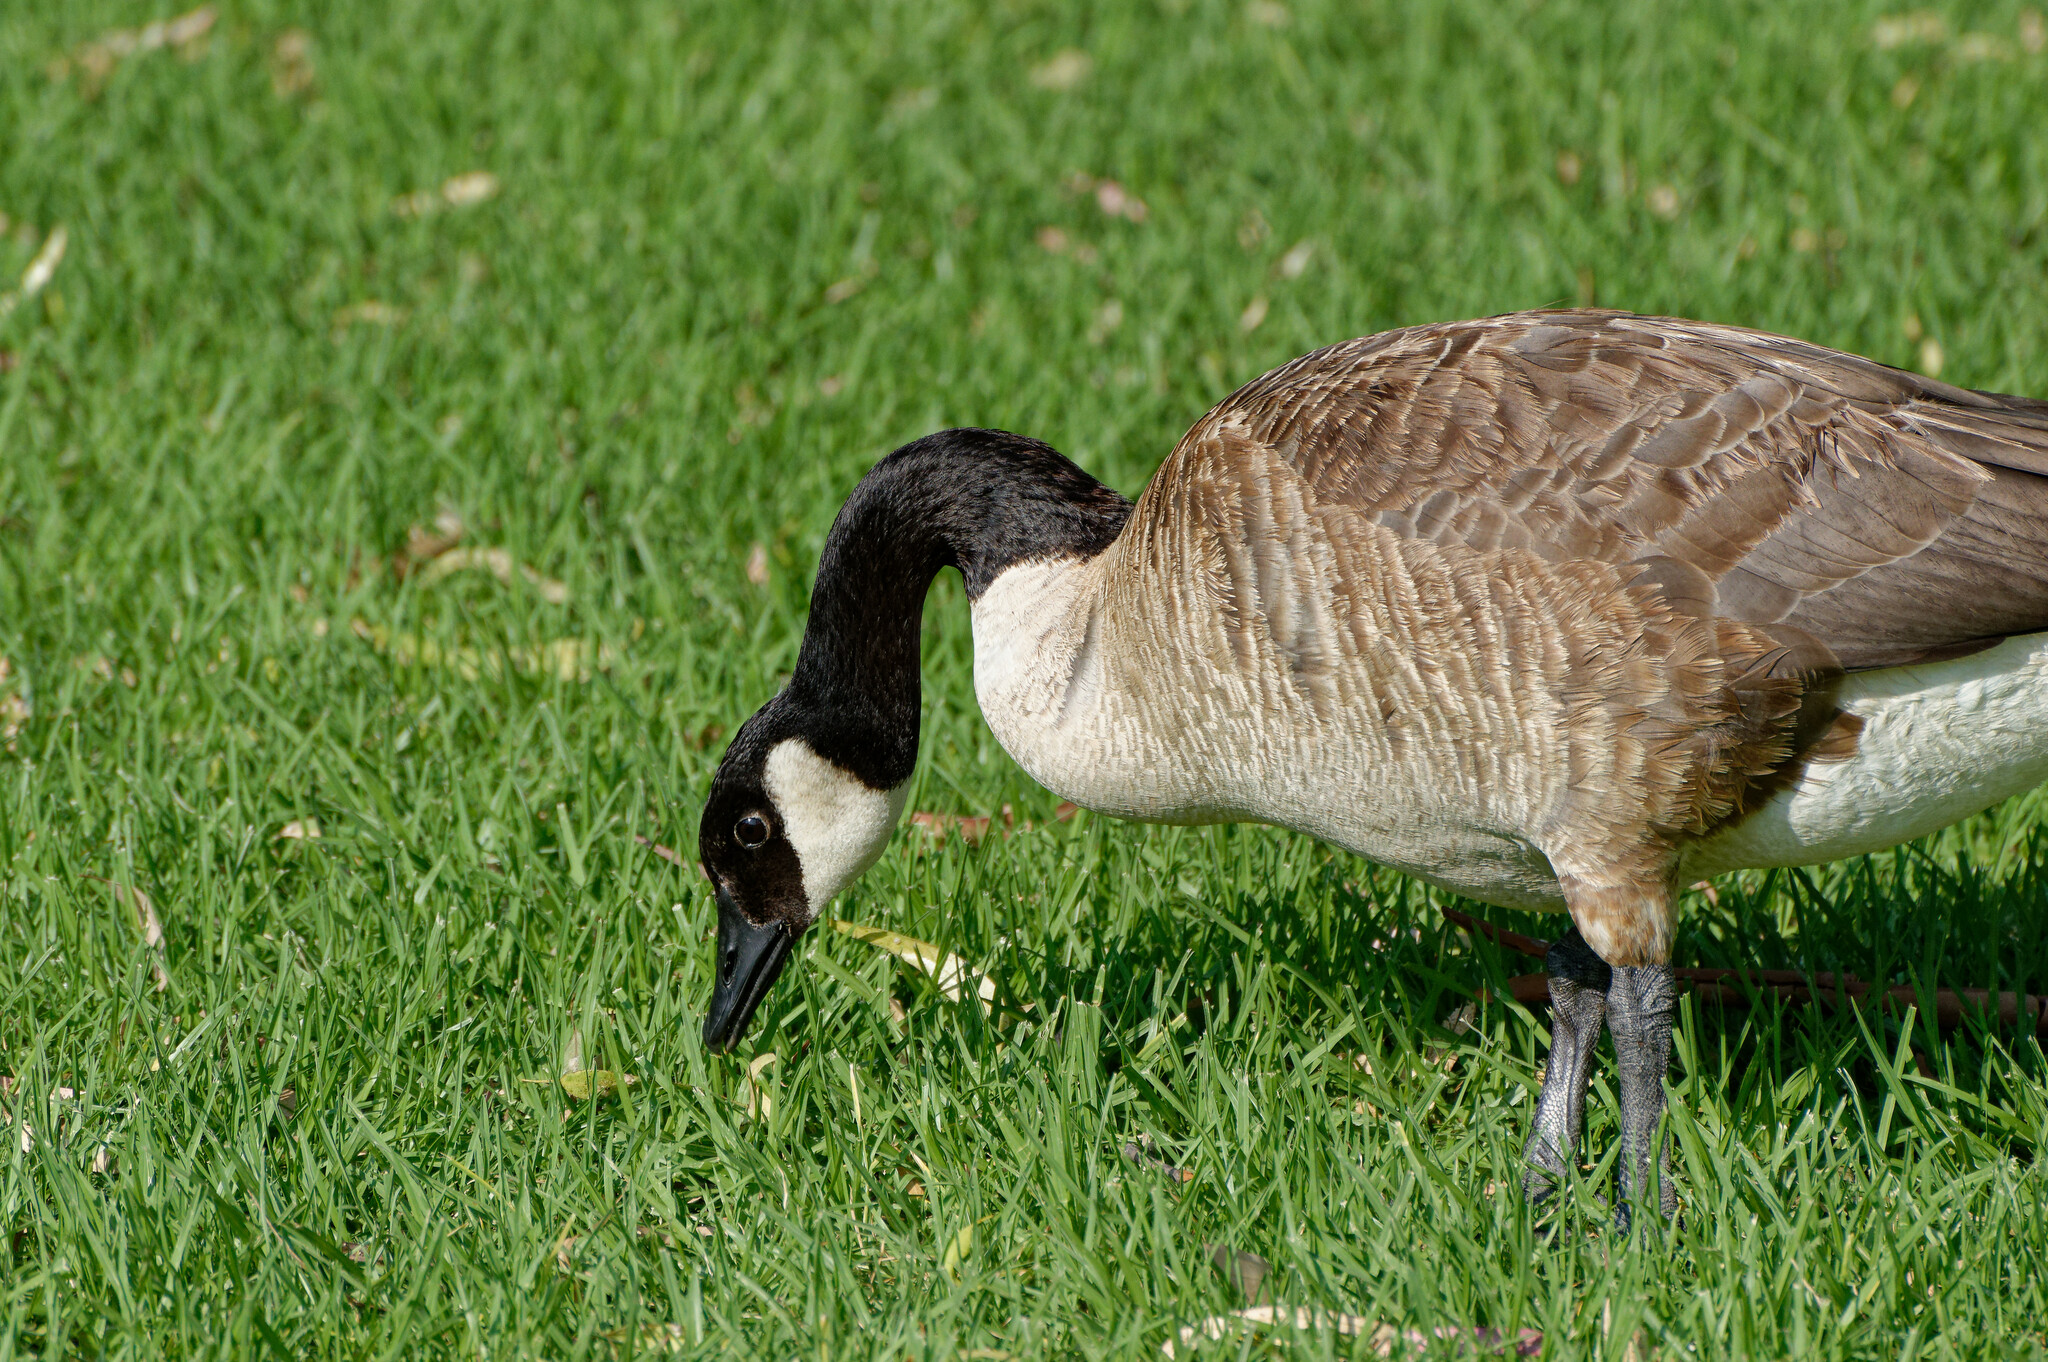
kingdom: Animalia
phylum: Chordata
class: Aves
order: Anseriformes
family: Anatidae
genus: Branta
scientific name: Branta canadensis
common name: Canada goose
